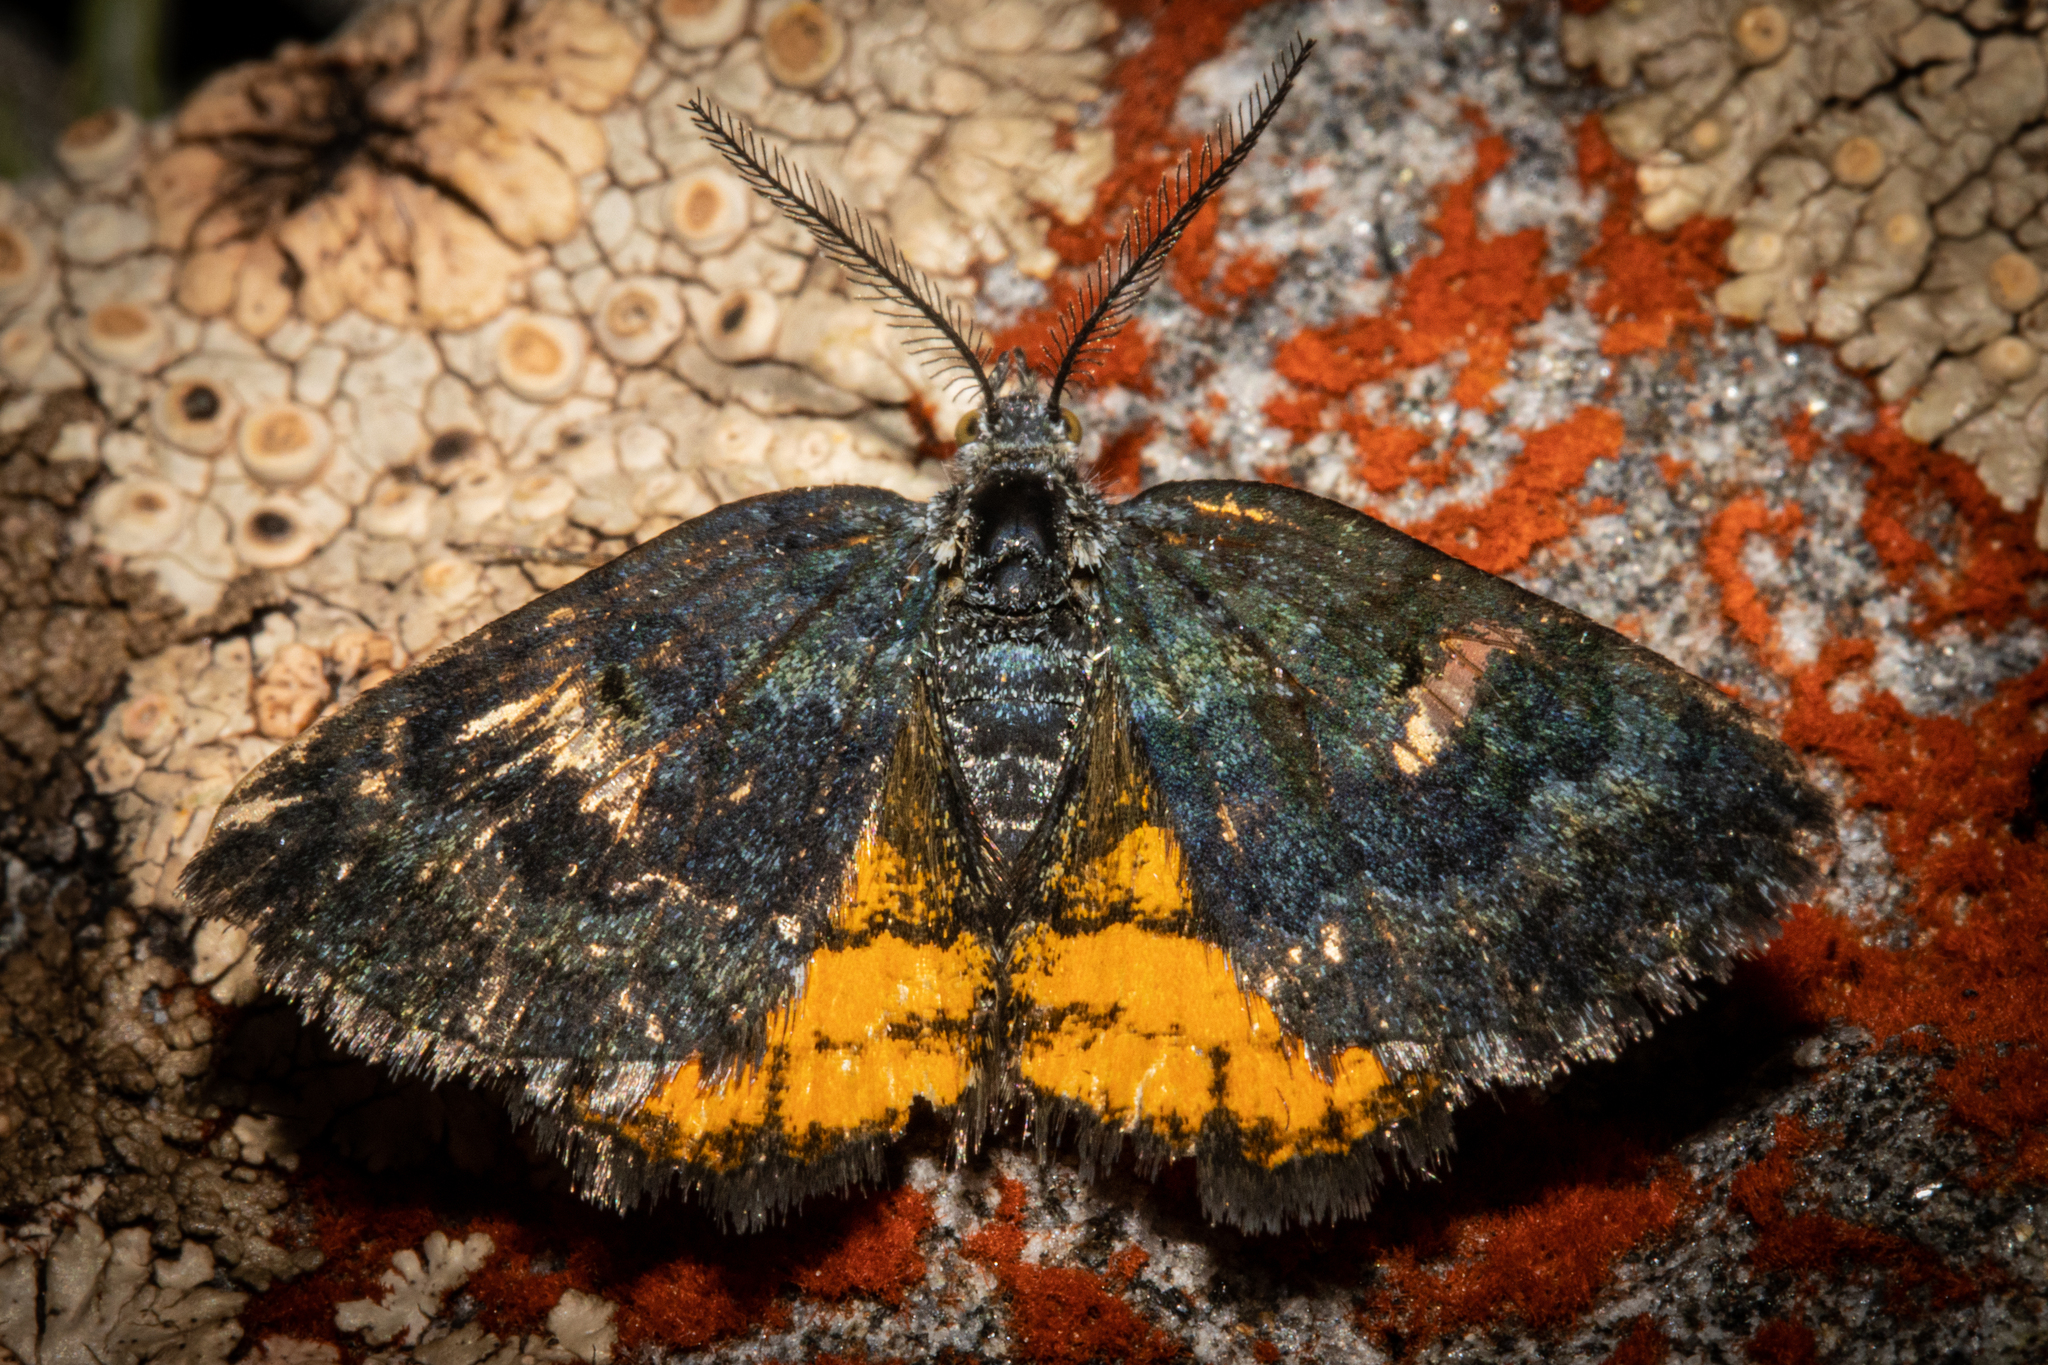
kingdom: Animalia
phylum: Arthropoda
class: Insecta
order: Lepidoptera
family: Geometridae
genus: Paranotoreas
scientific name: Paranotoreas zopyra
